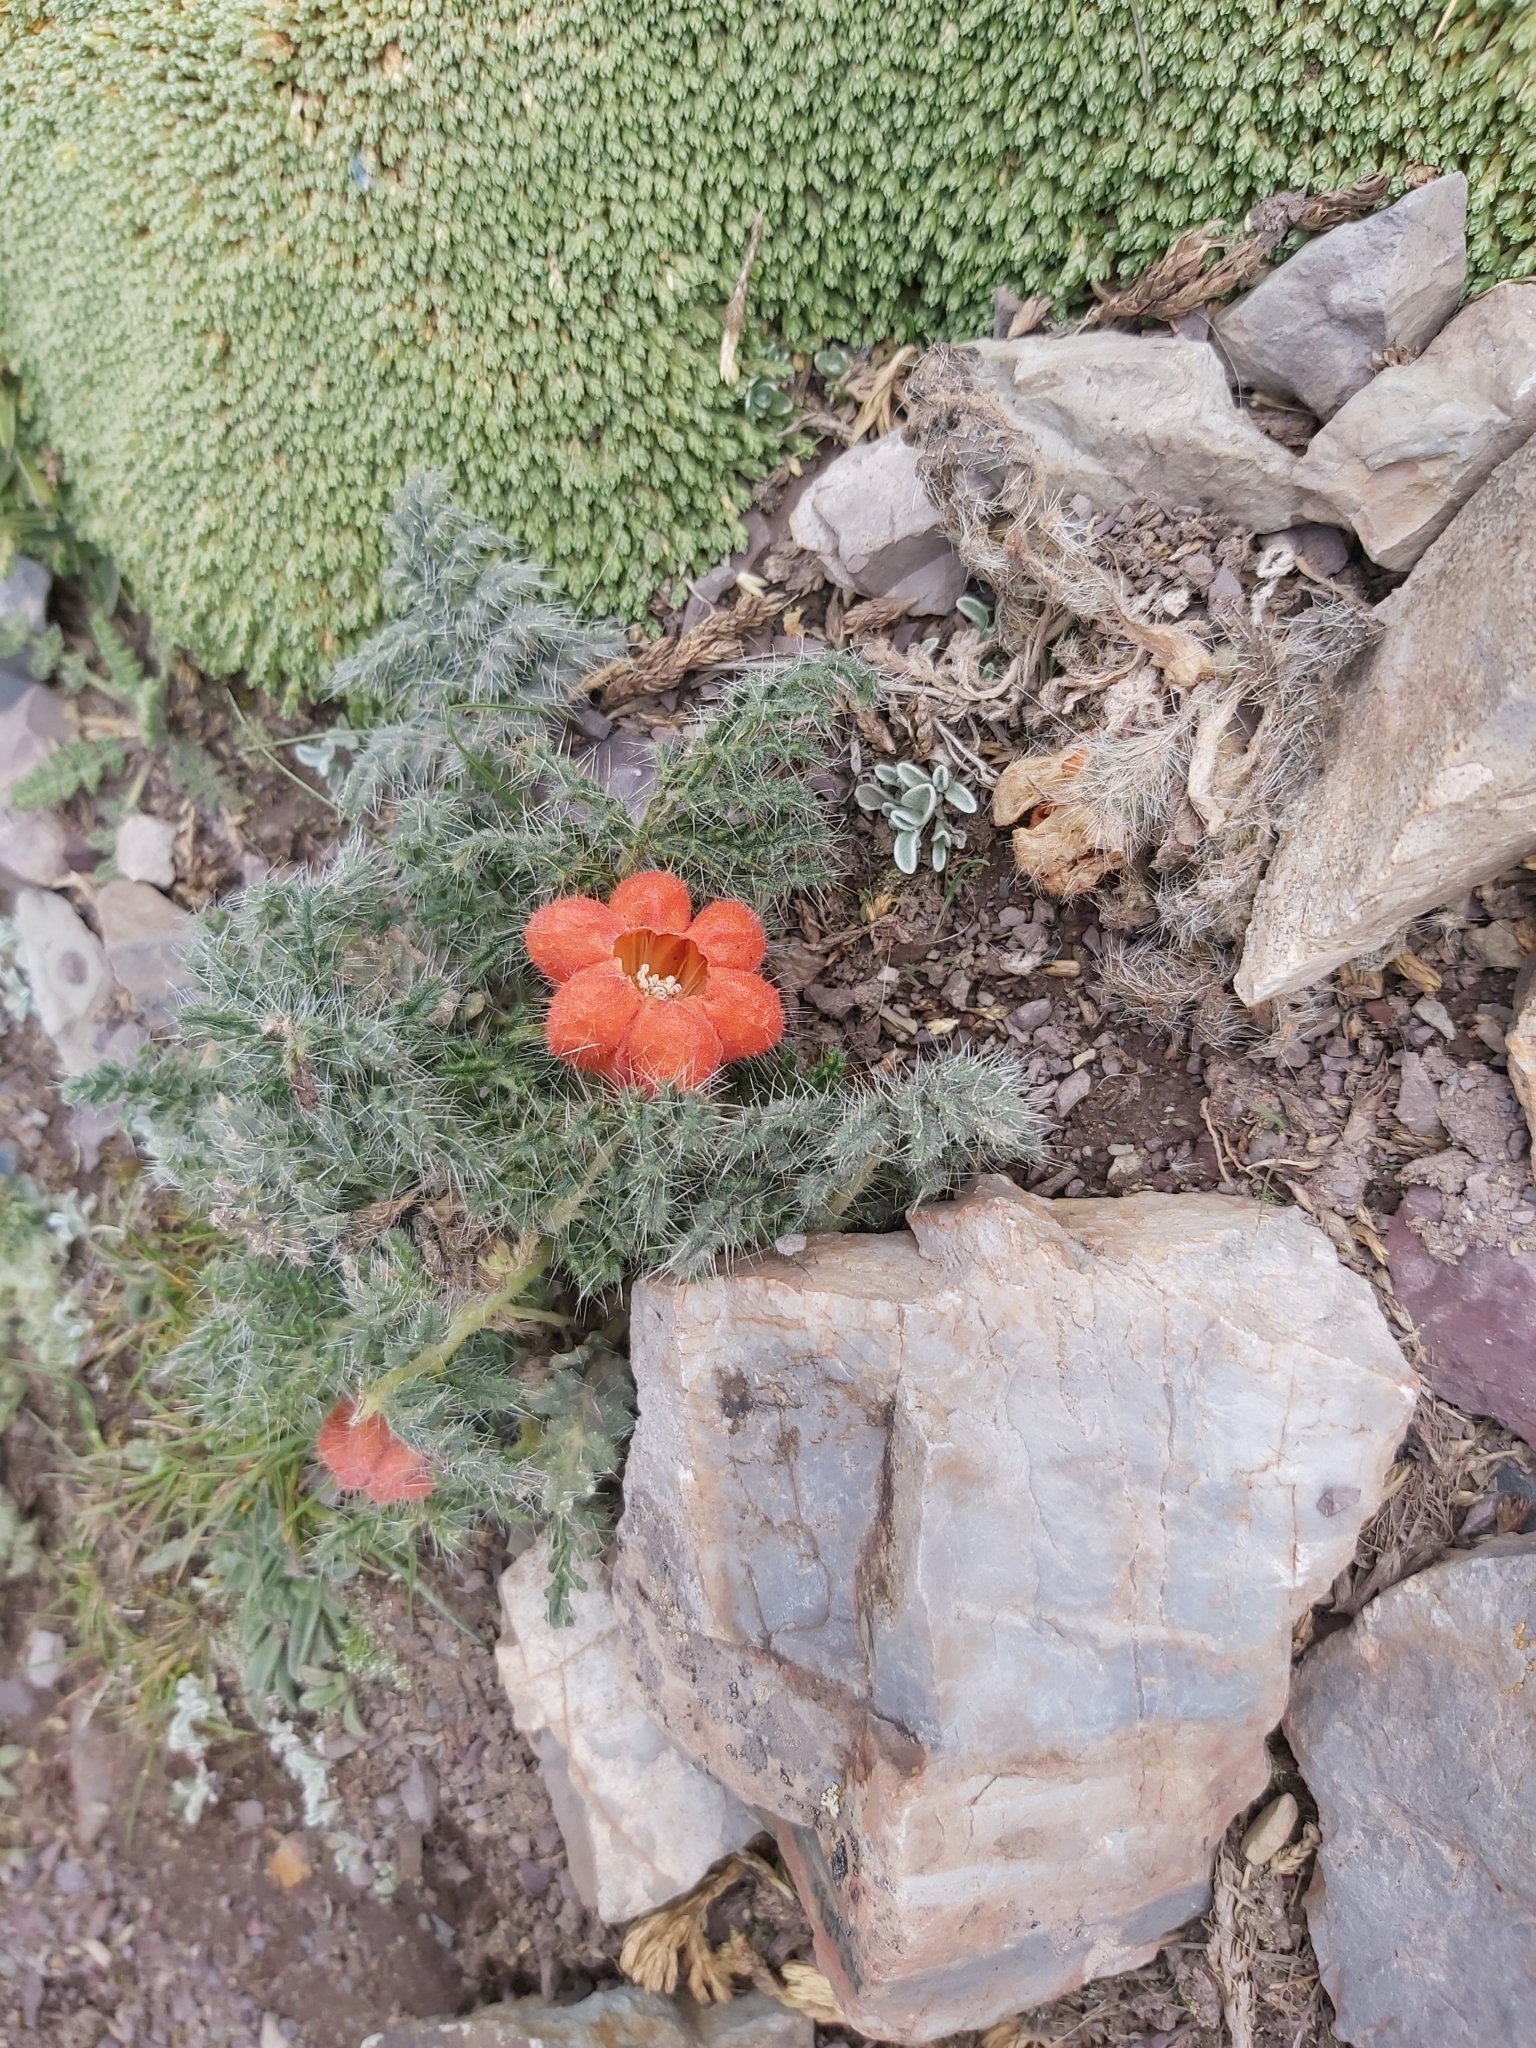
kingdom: Plantae
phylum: Tracheophyta
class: Magnoliopsida
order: Cornales
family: Loasaceae
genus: Caiophora
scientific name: Caiophora rosulata
